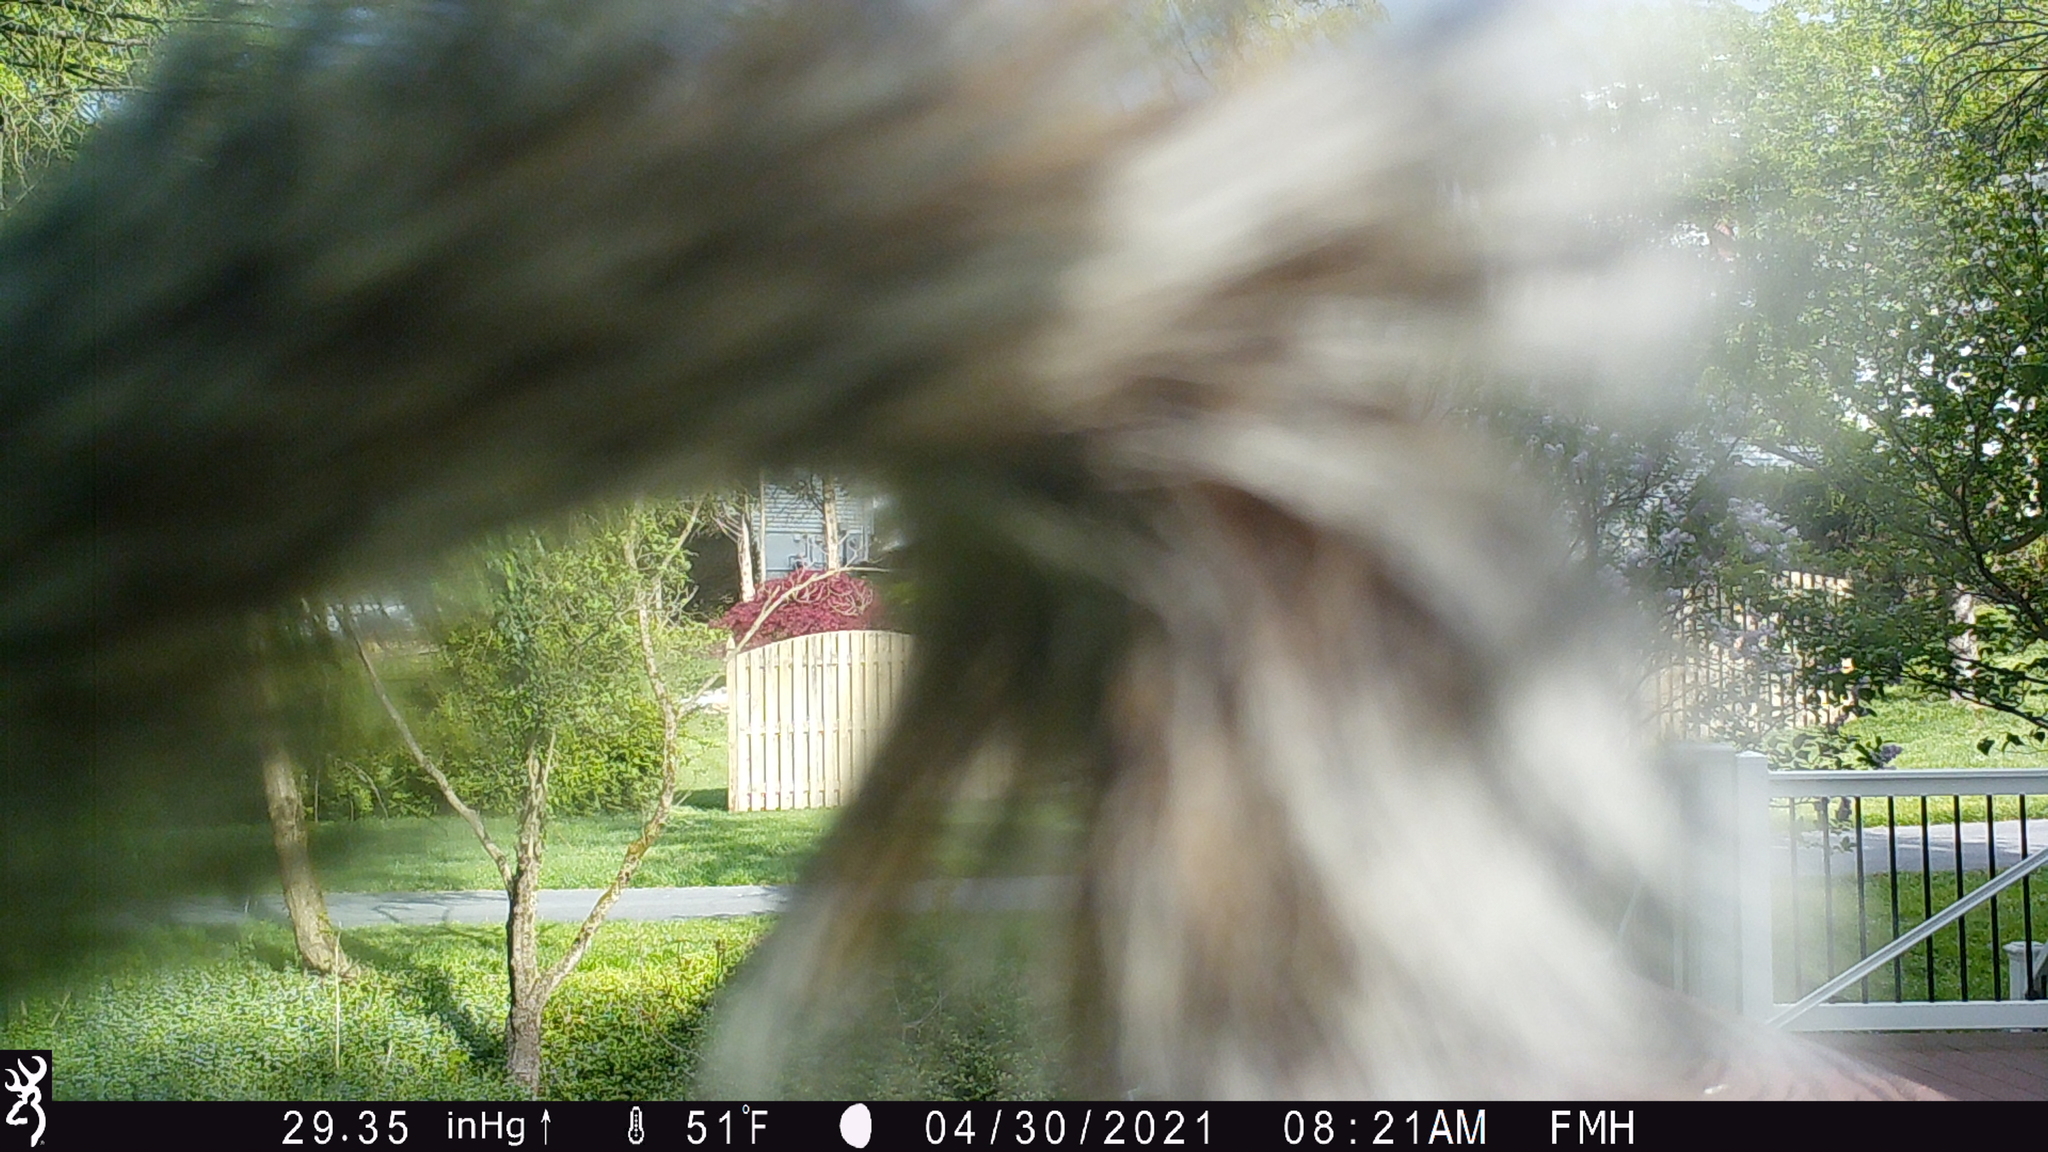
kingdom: Animalia
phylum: Chordata
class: Mammalia
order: Rodentia
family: Sciuridae
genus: Sciurus
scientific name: Sciurus carolinensis
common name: Eastern gray squirrel
